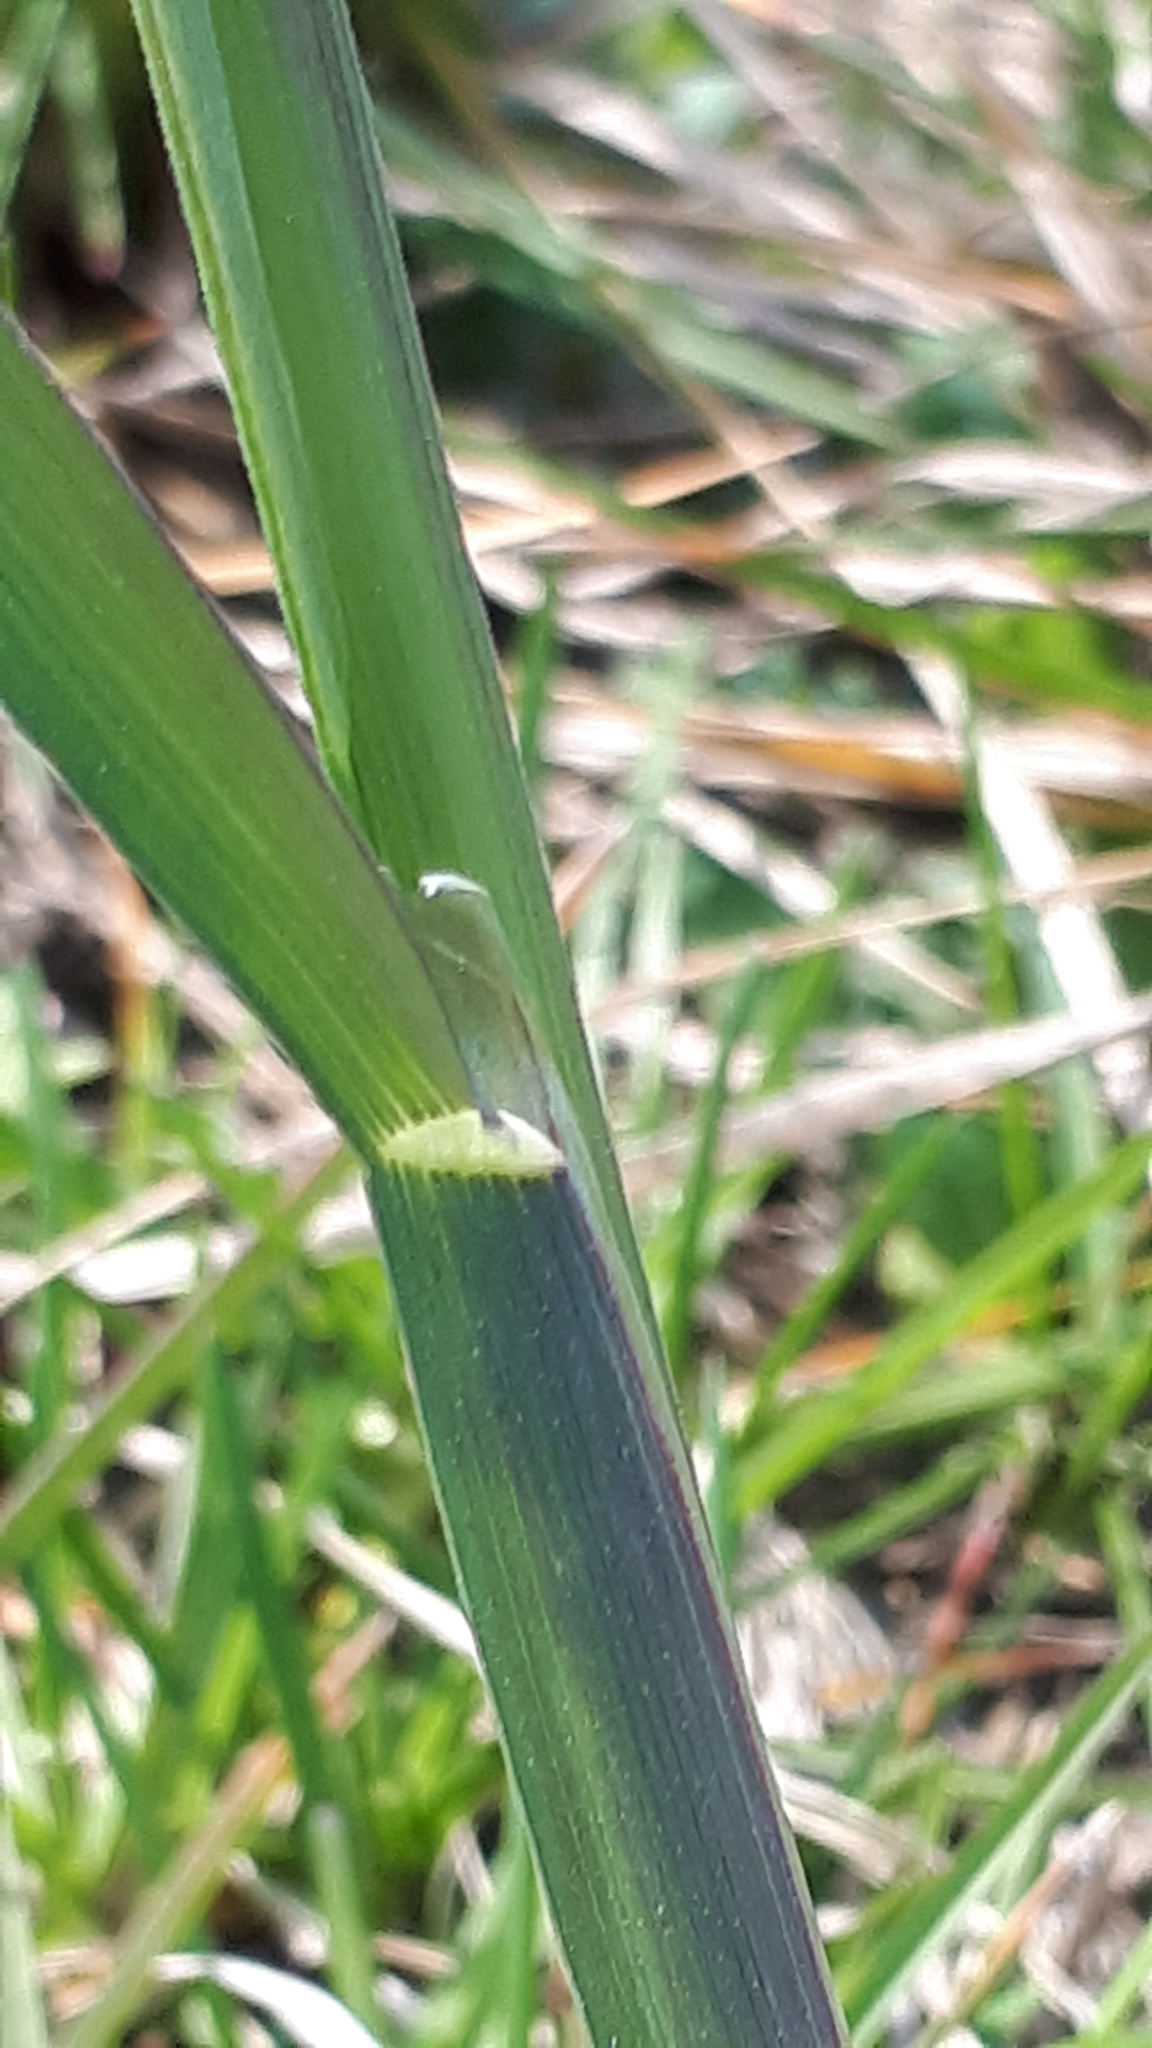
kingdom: Plantae
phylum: Tracheophyta
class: Liliopsida
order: Poales
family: Poaceae
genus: Dactylis
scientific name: Dactylis glomerata
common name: Orchardgrass
